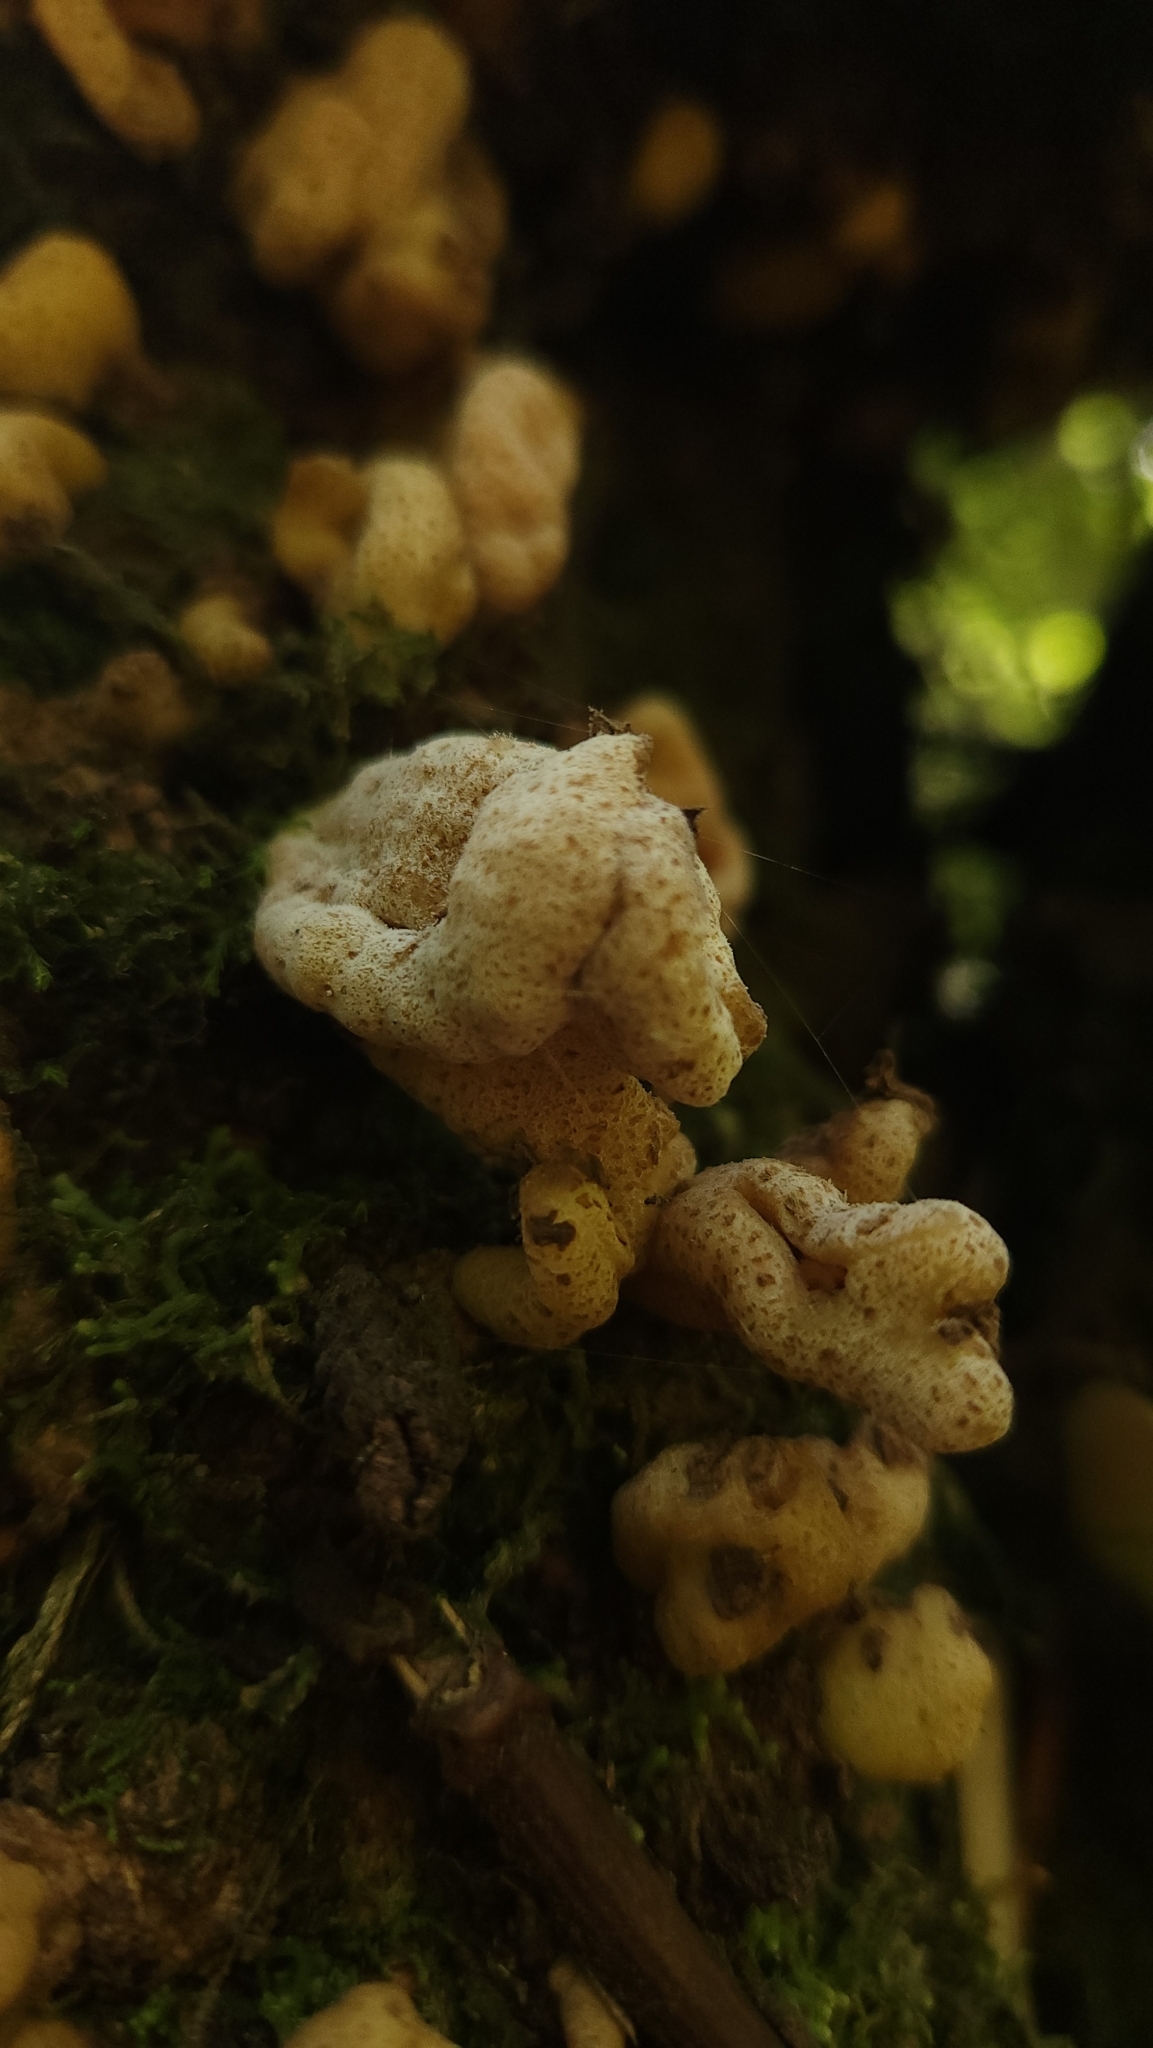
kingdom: Fungi
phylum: Basidiomycota
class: Exobasidiomycetes
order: Exobasidiales
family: Exobasidiaceae
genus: Austrobasidium
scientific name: Austrobasidium pehueldeni
